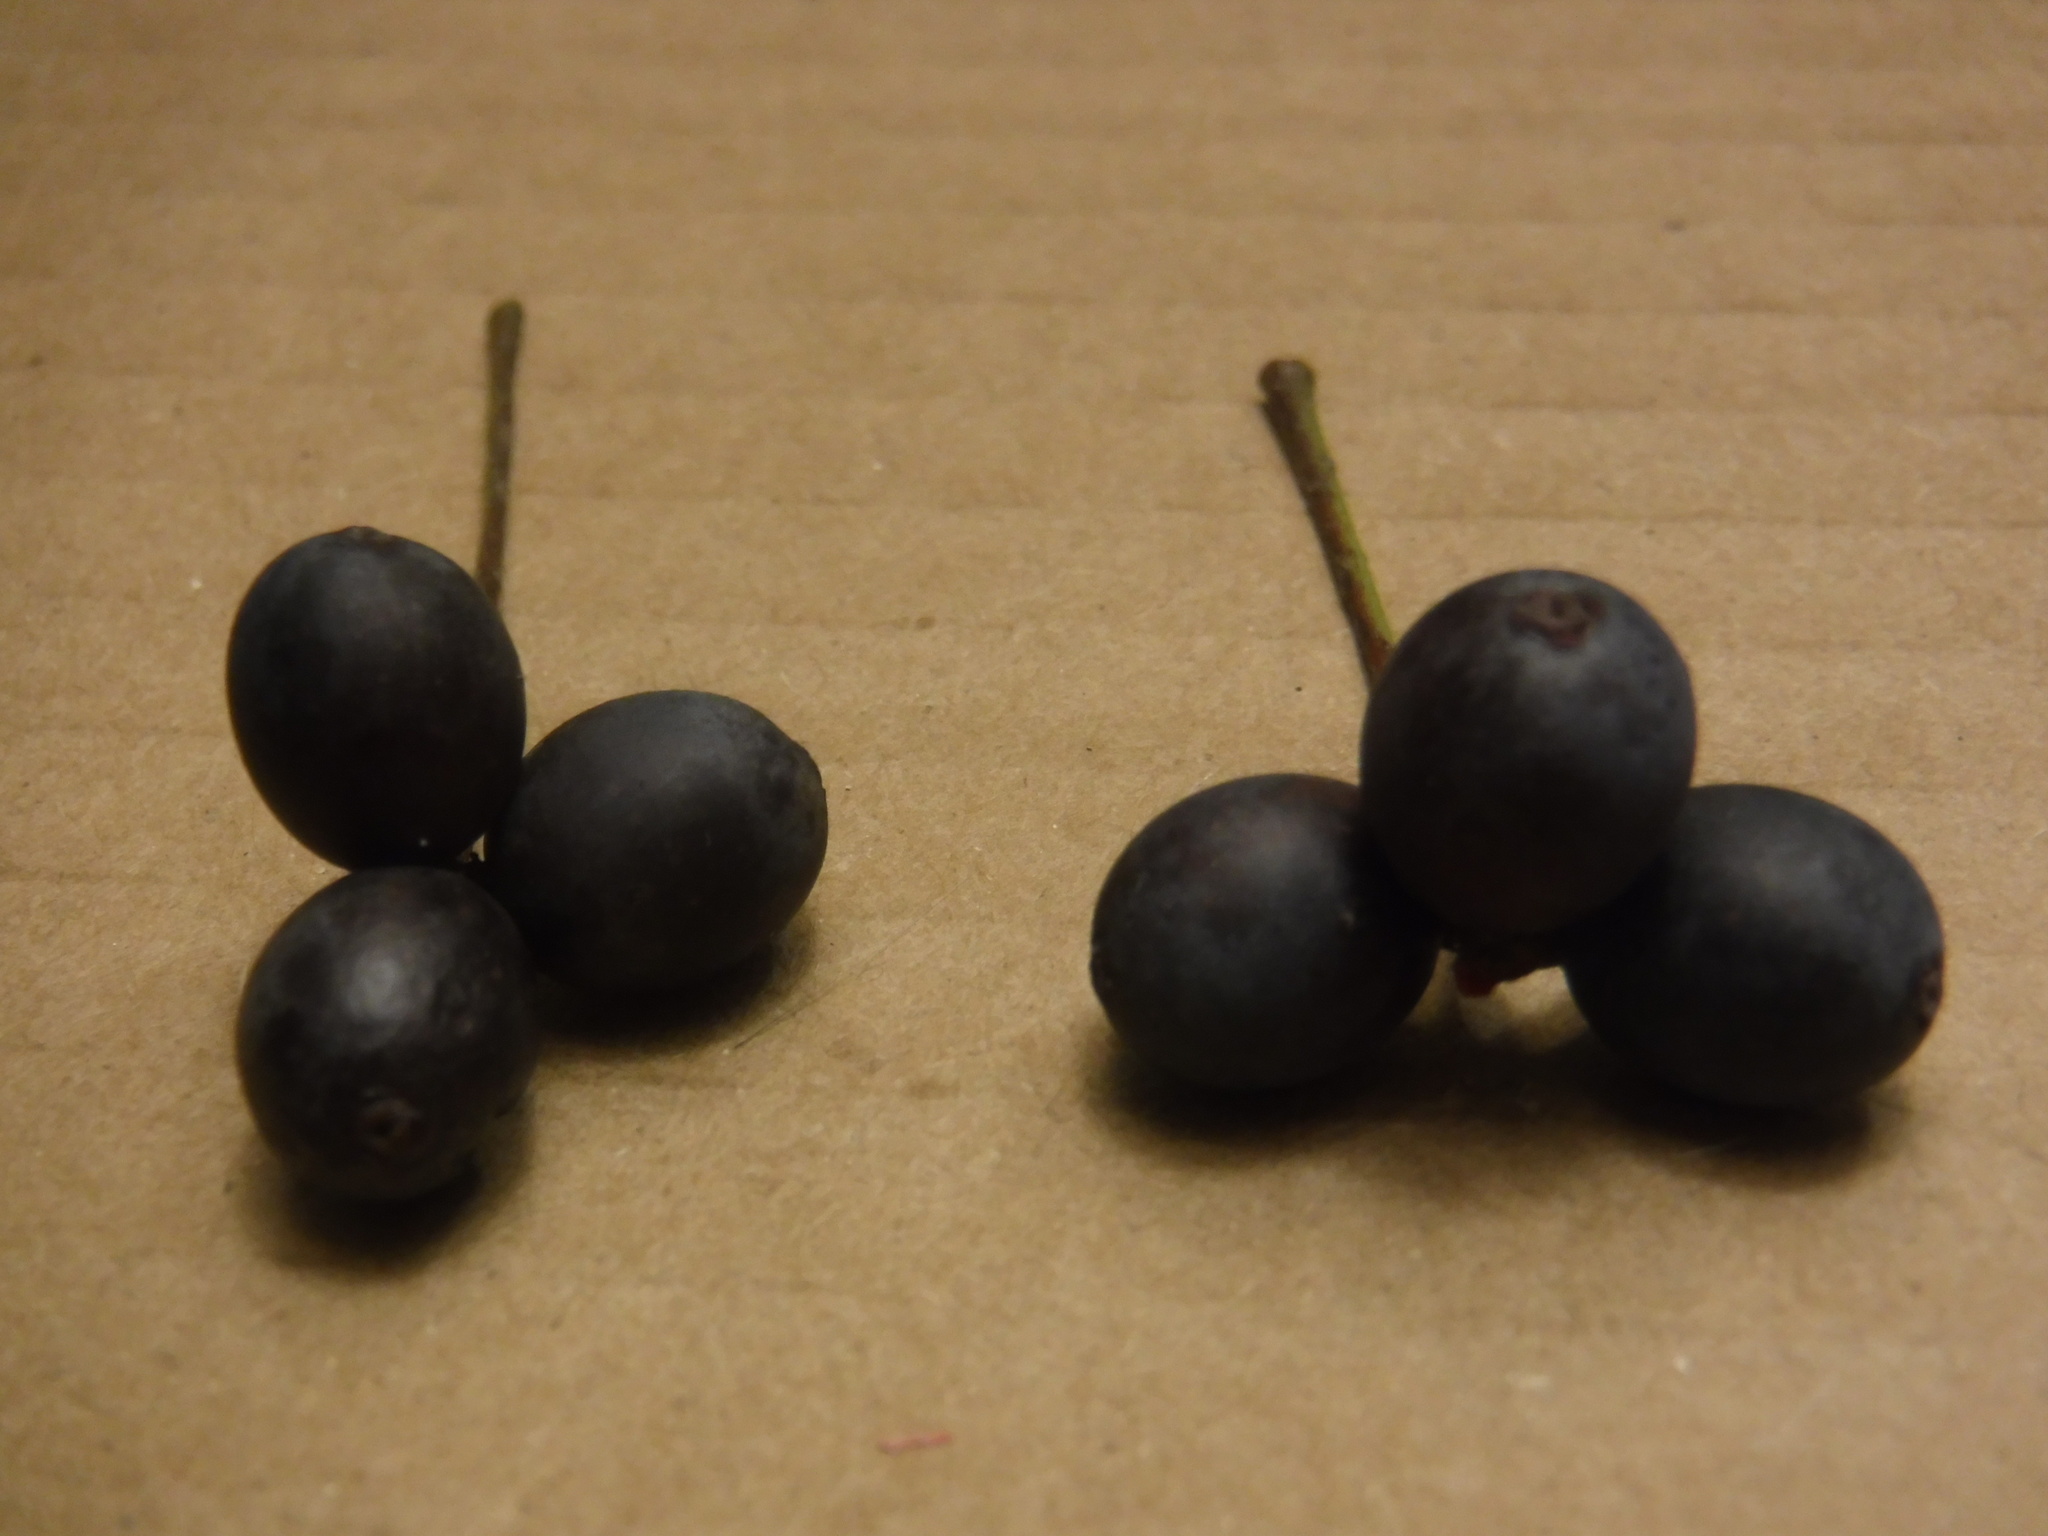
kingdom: Plantae
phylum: Tracheophyta
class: Magnoliopsida
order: Cornales
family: Nyssaceae
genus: Nyssa
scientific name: Nyssa sylvatica
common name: Black tupelo
